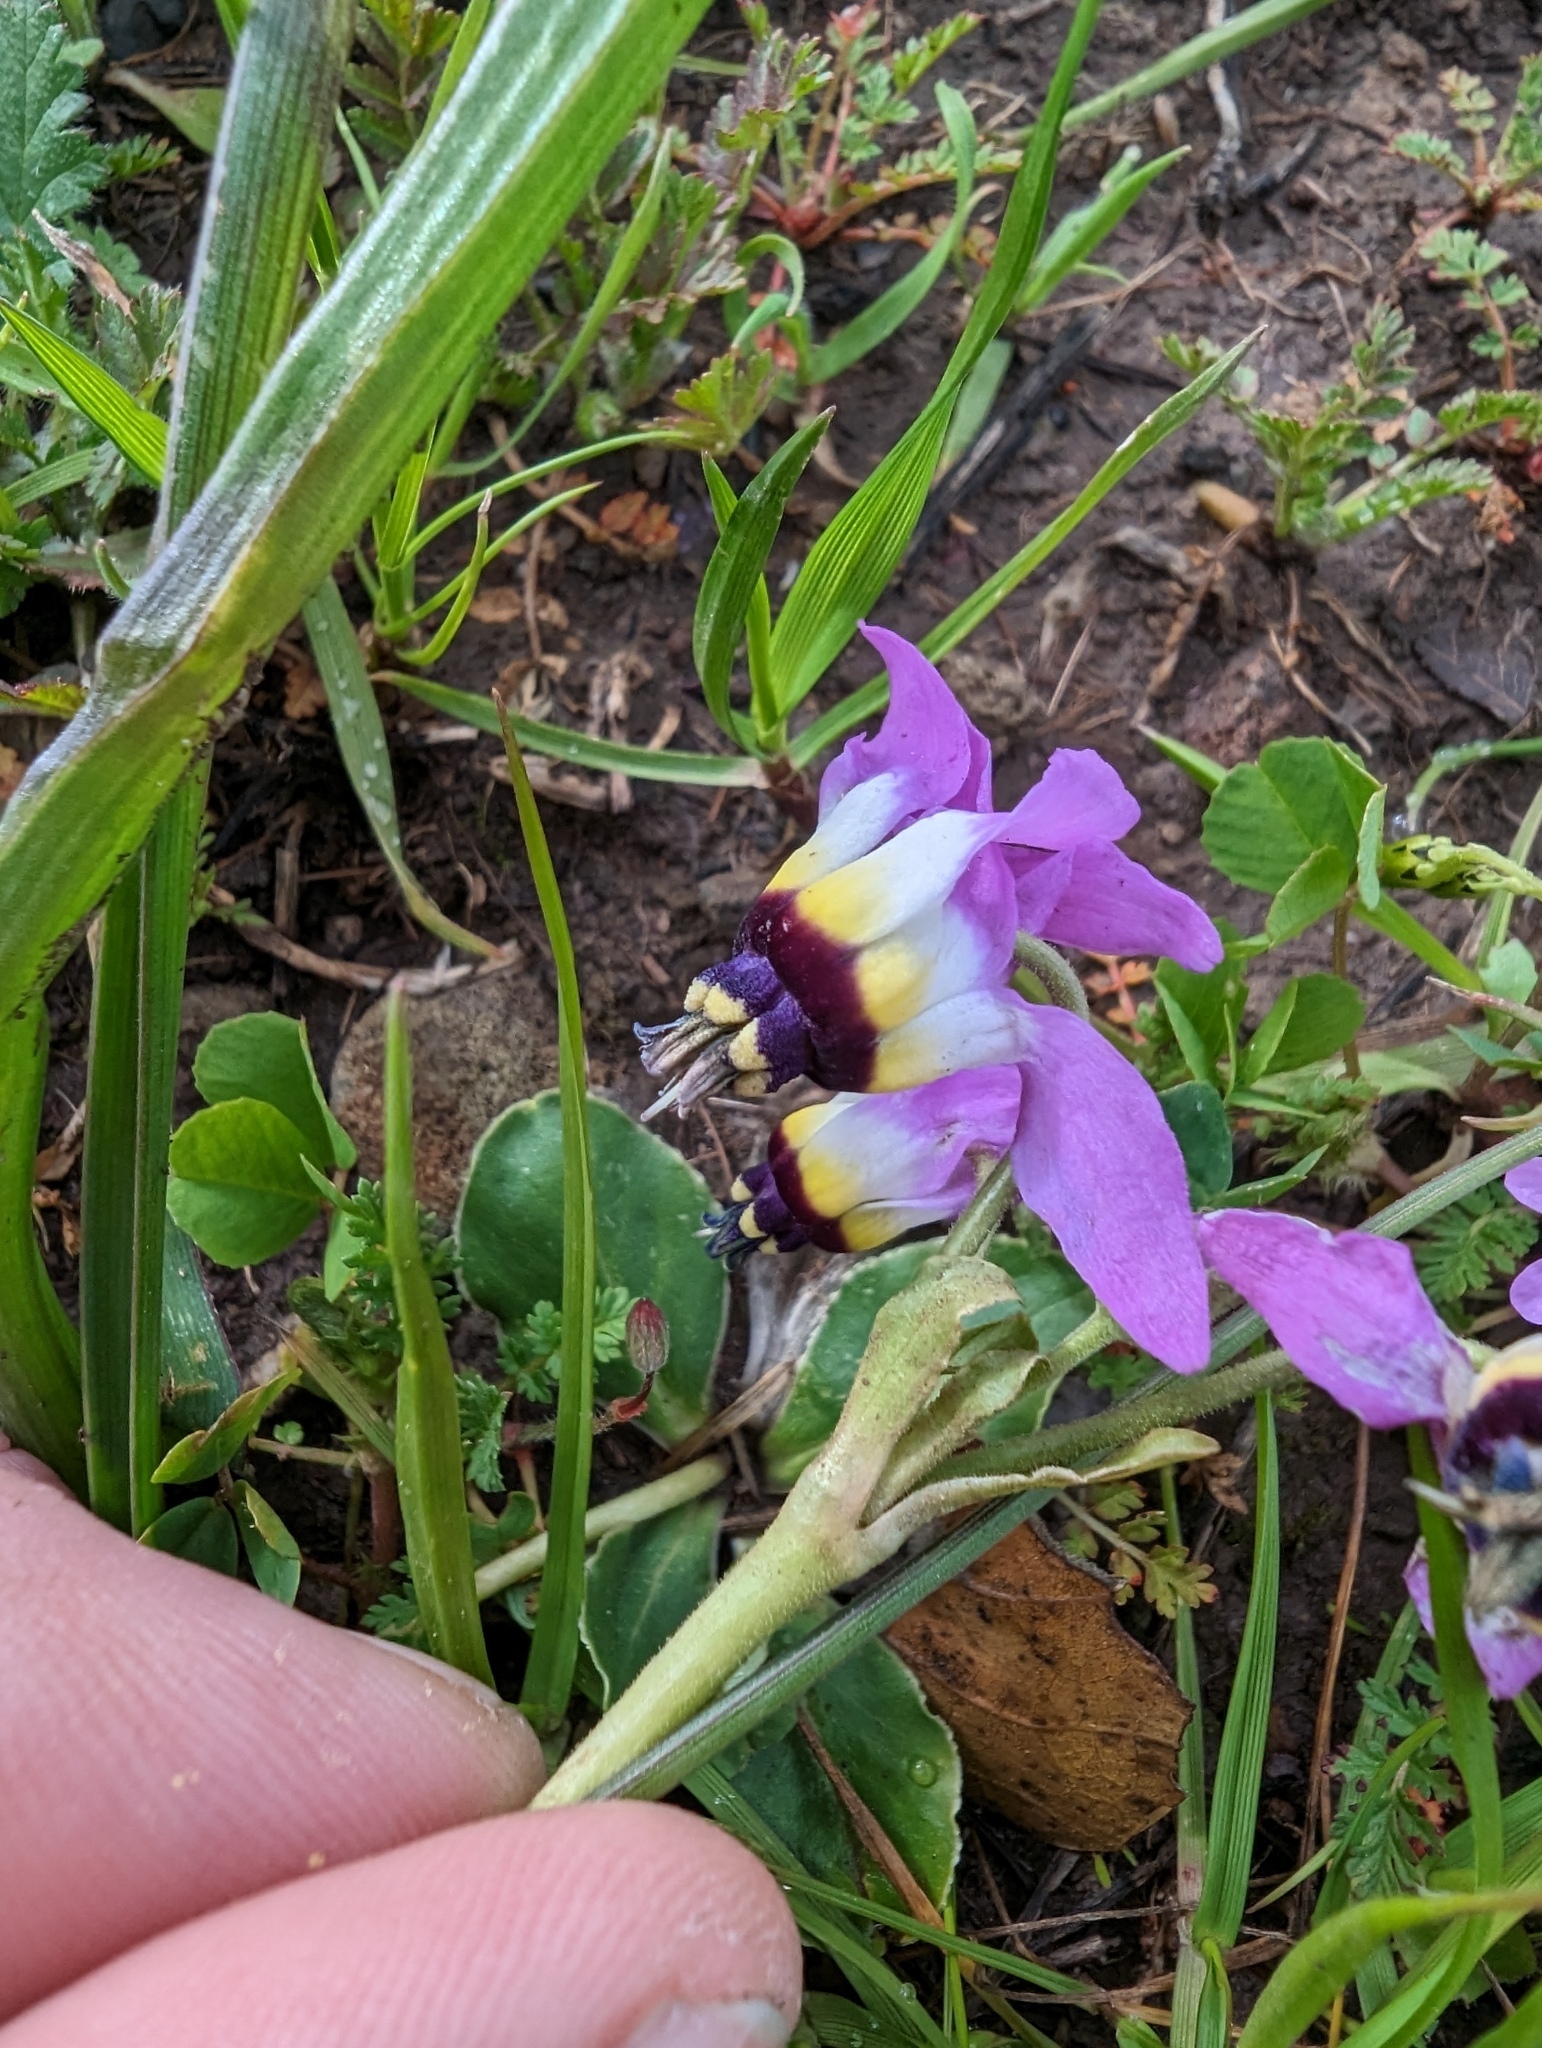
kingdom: Plantae
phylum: Tracheophyta
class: Magnoliopsida
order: Ericales
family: Primulaceae
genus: Dodecatheon
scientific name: Dodecatheon clevelandii
